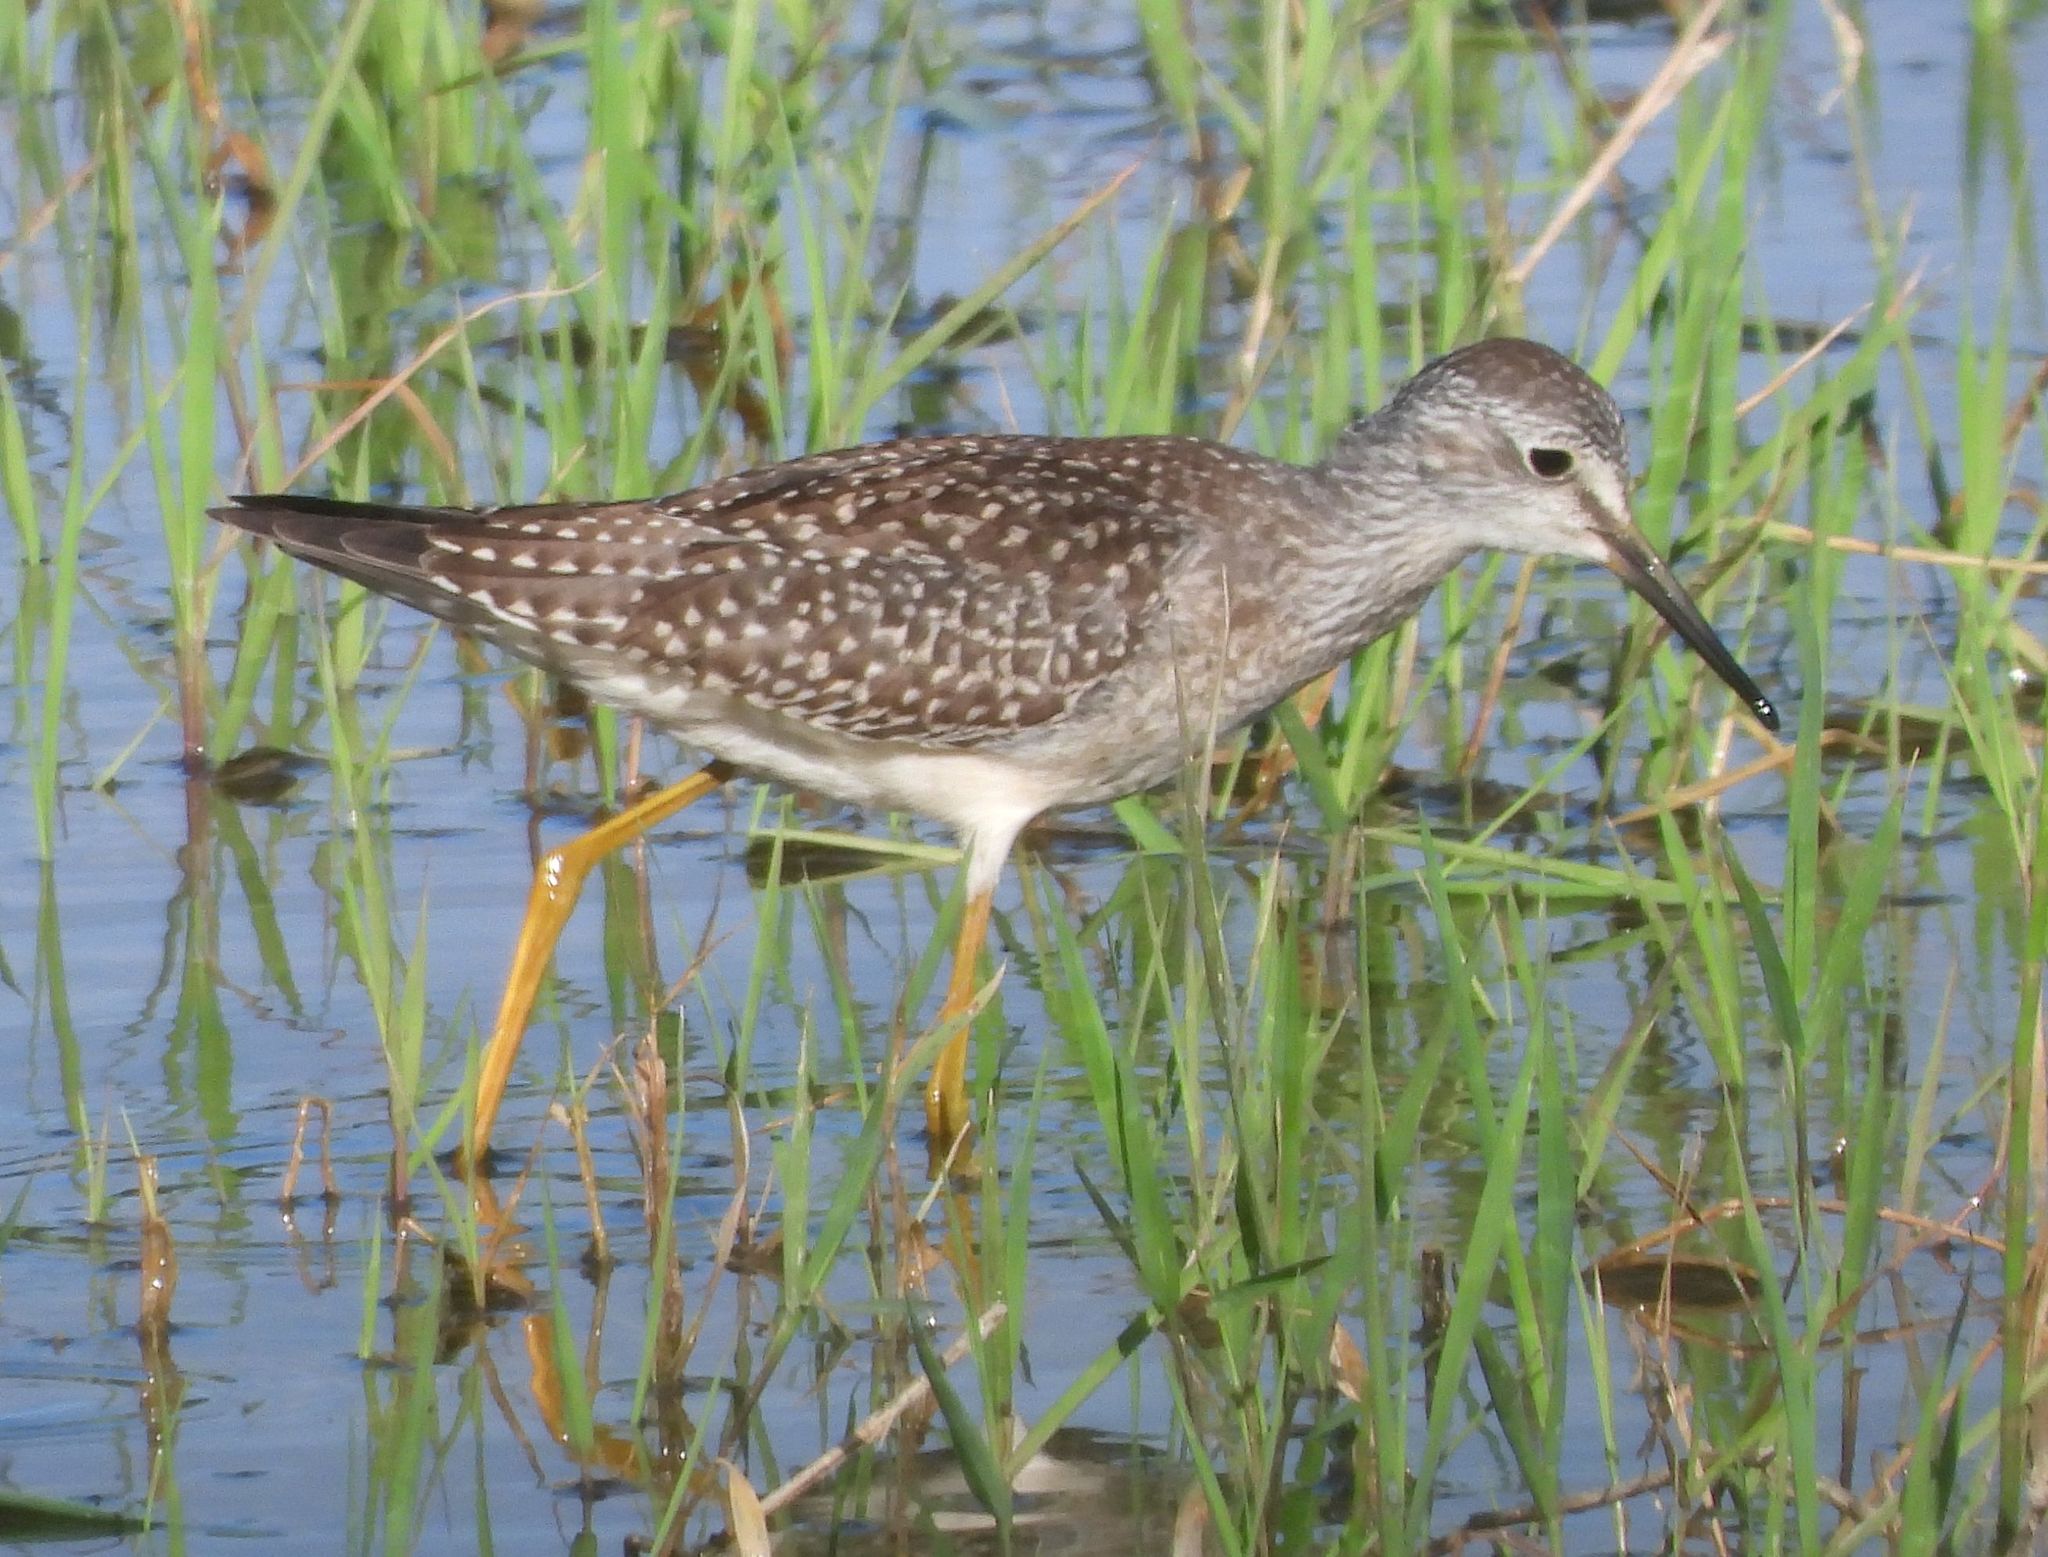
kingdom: Animalia
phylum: Chordata
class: Aves
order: Charadriiformes
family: Scolopacidae
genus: Tringa
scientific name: Tringa flavipes
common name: Lesser yellowlegs
